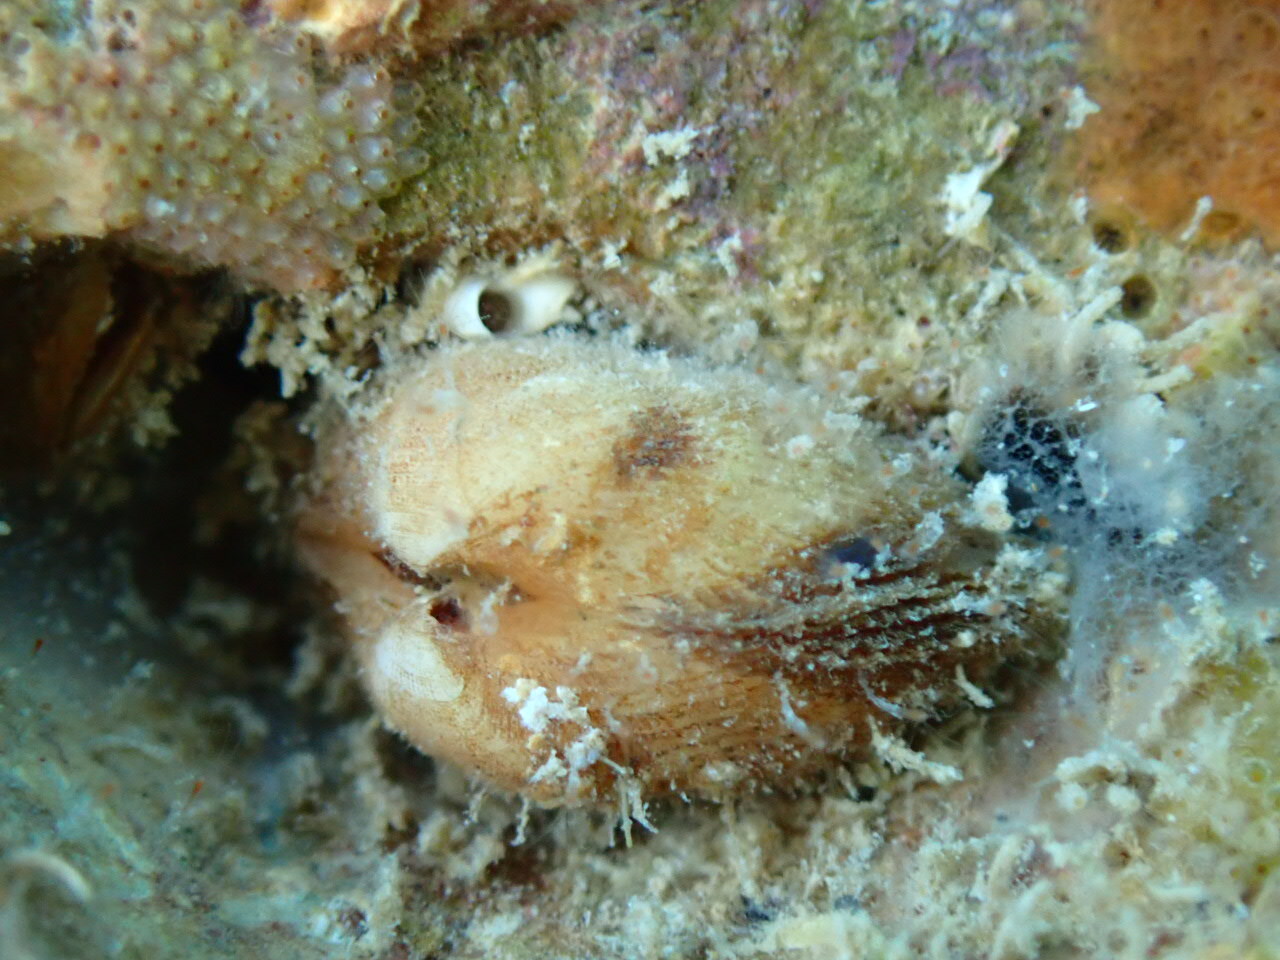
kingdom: Animalia
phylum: Mollusca
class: Bivalvia
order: Arcida
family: Noetiidae
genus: Striarca
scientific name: Striarca lactea
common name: Milky-white ark
